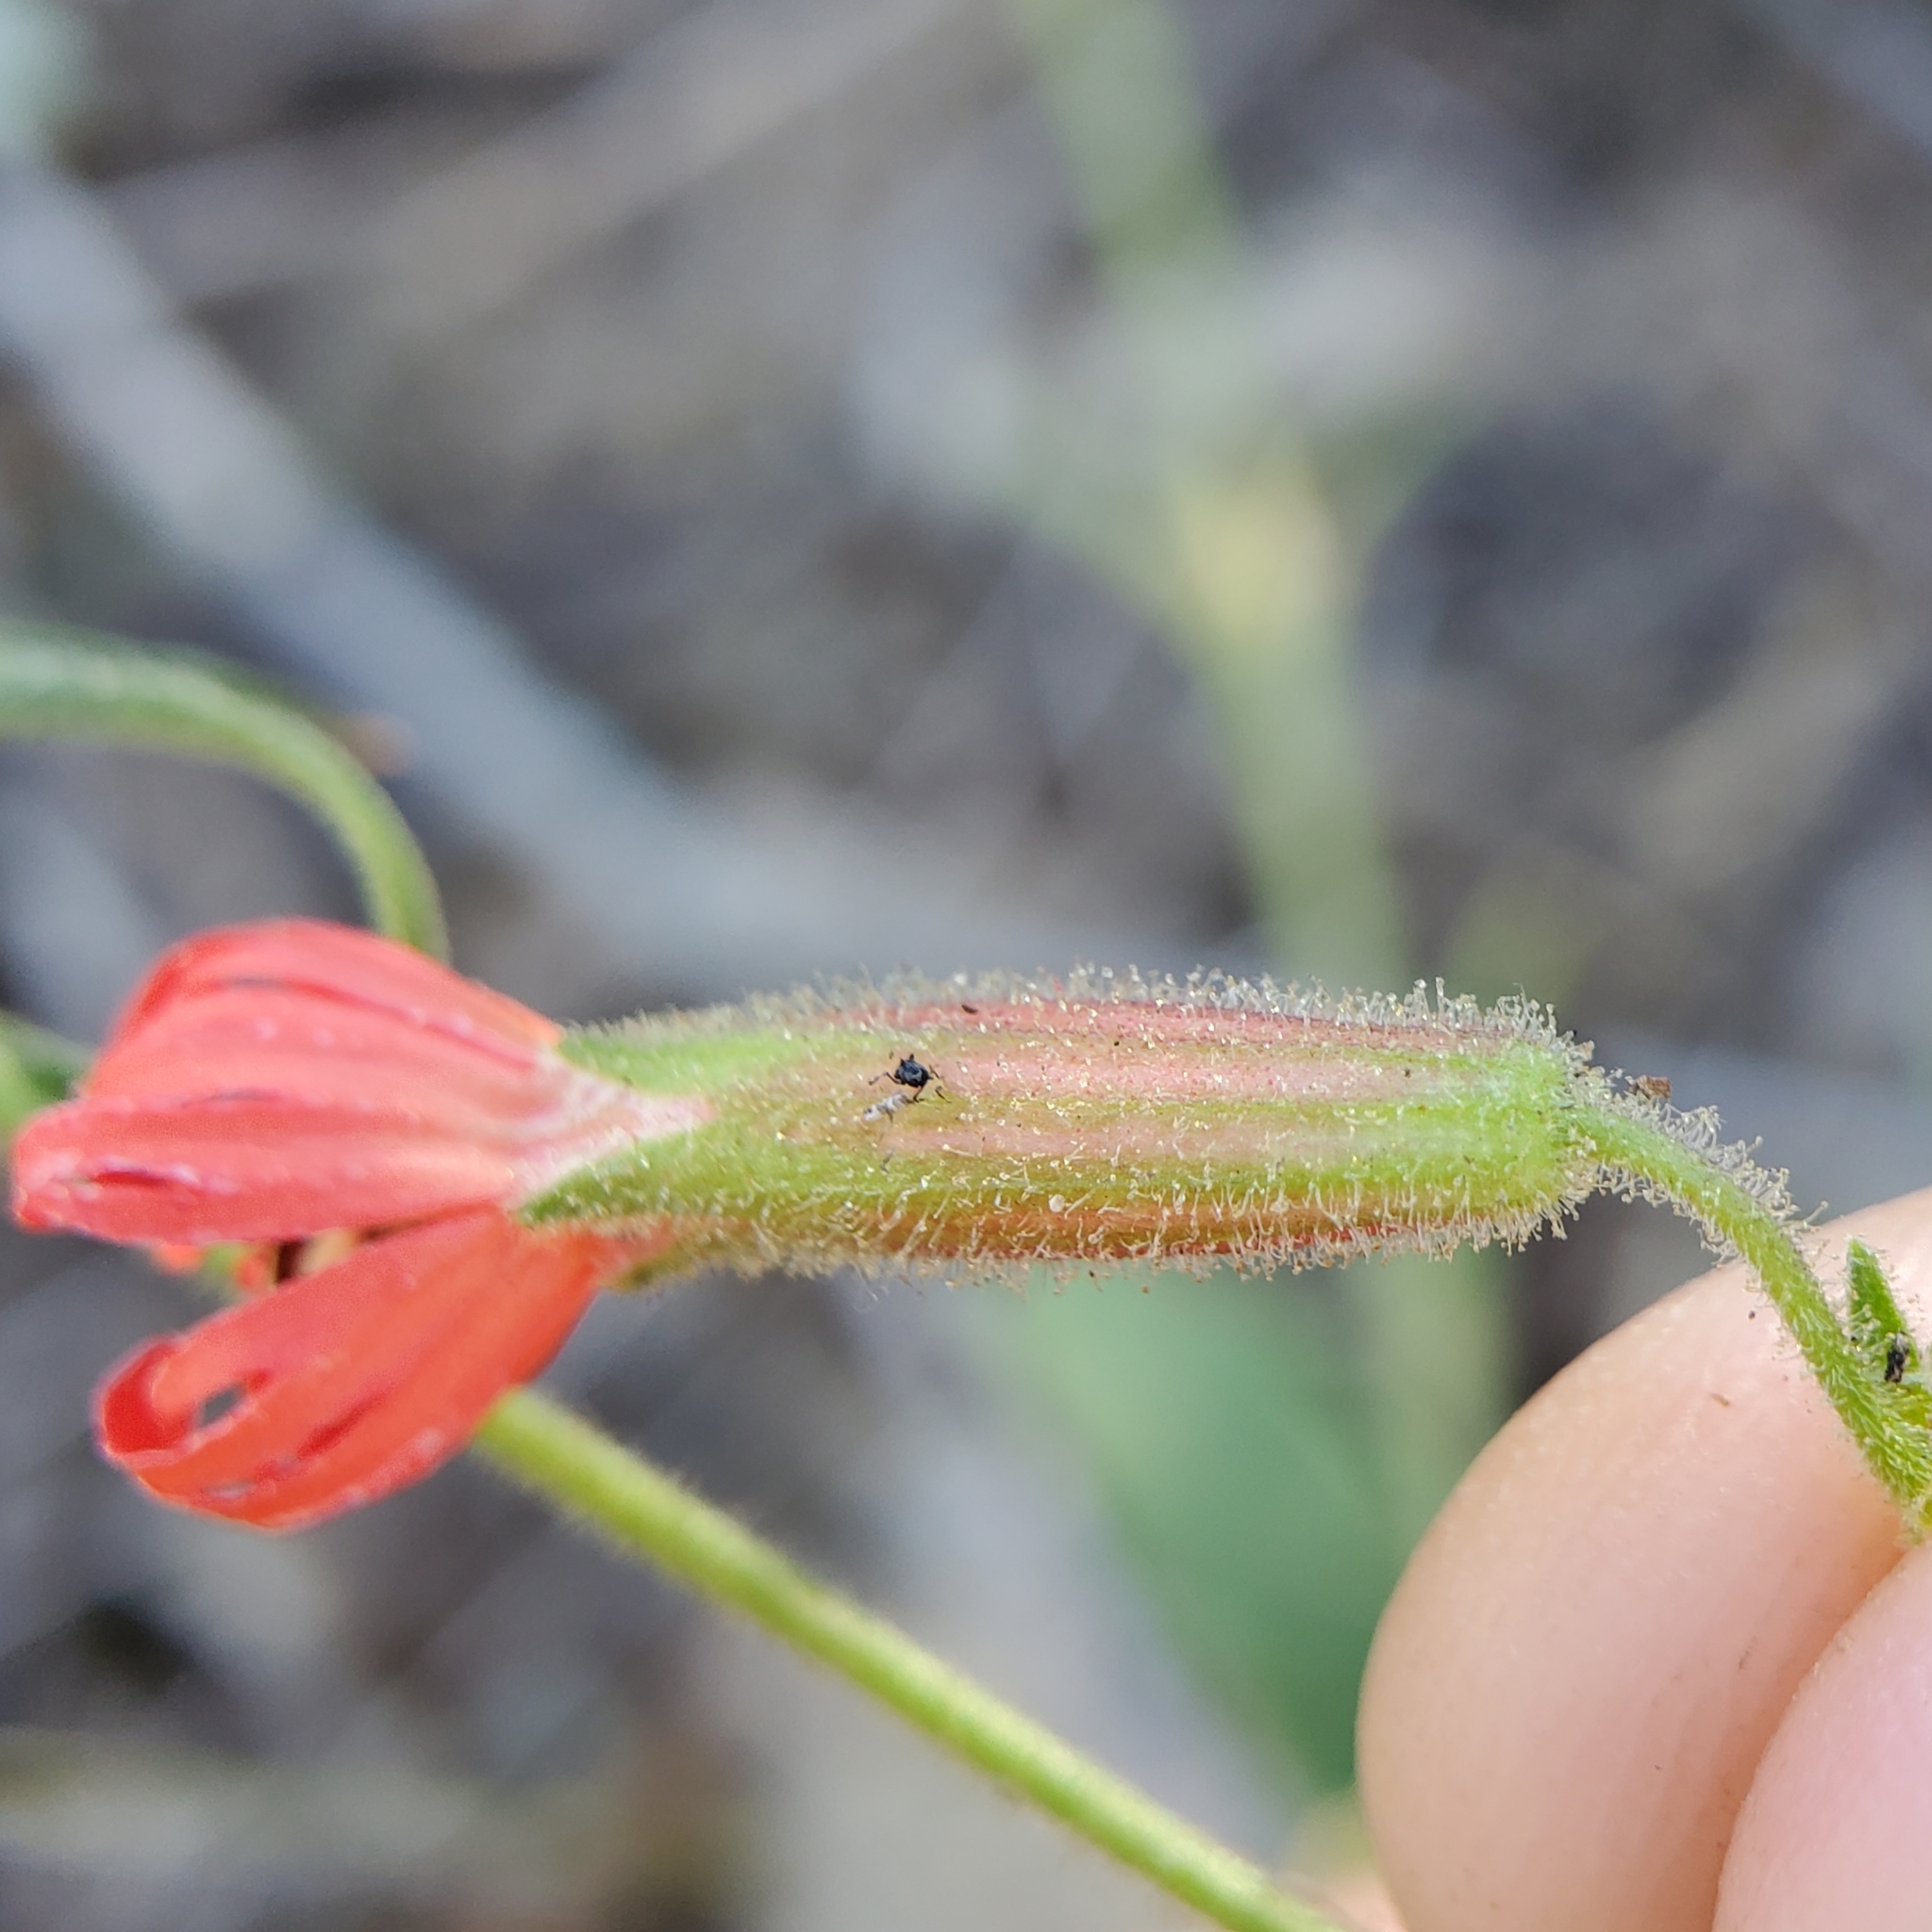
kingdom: Plantae
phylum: Tracheophyta
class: Magnoliopsida
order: Caryophyllales
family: Caryophyllaceae
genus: Silene
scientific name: Silene laciniata
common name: Indian-pink
